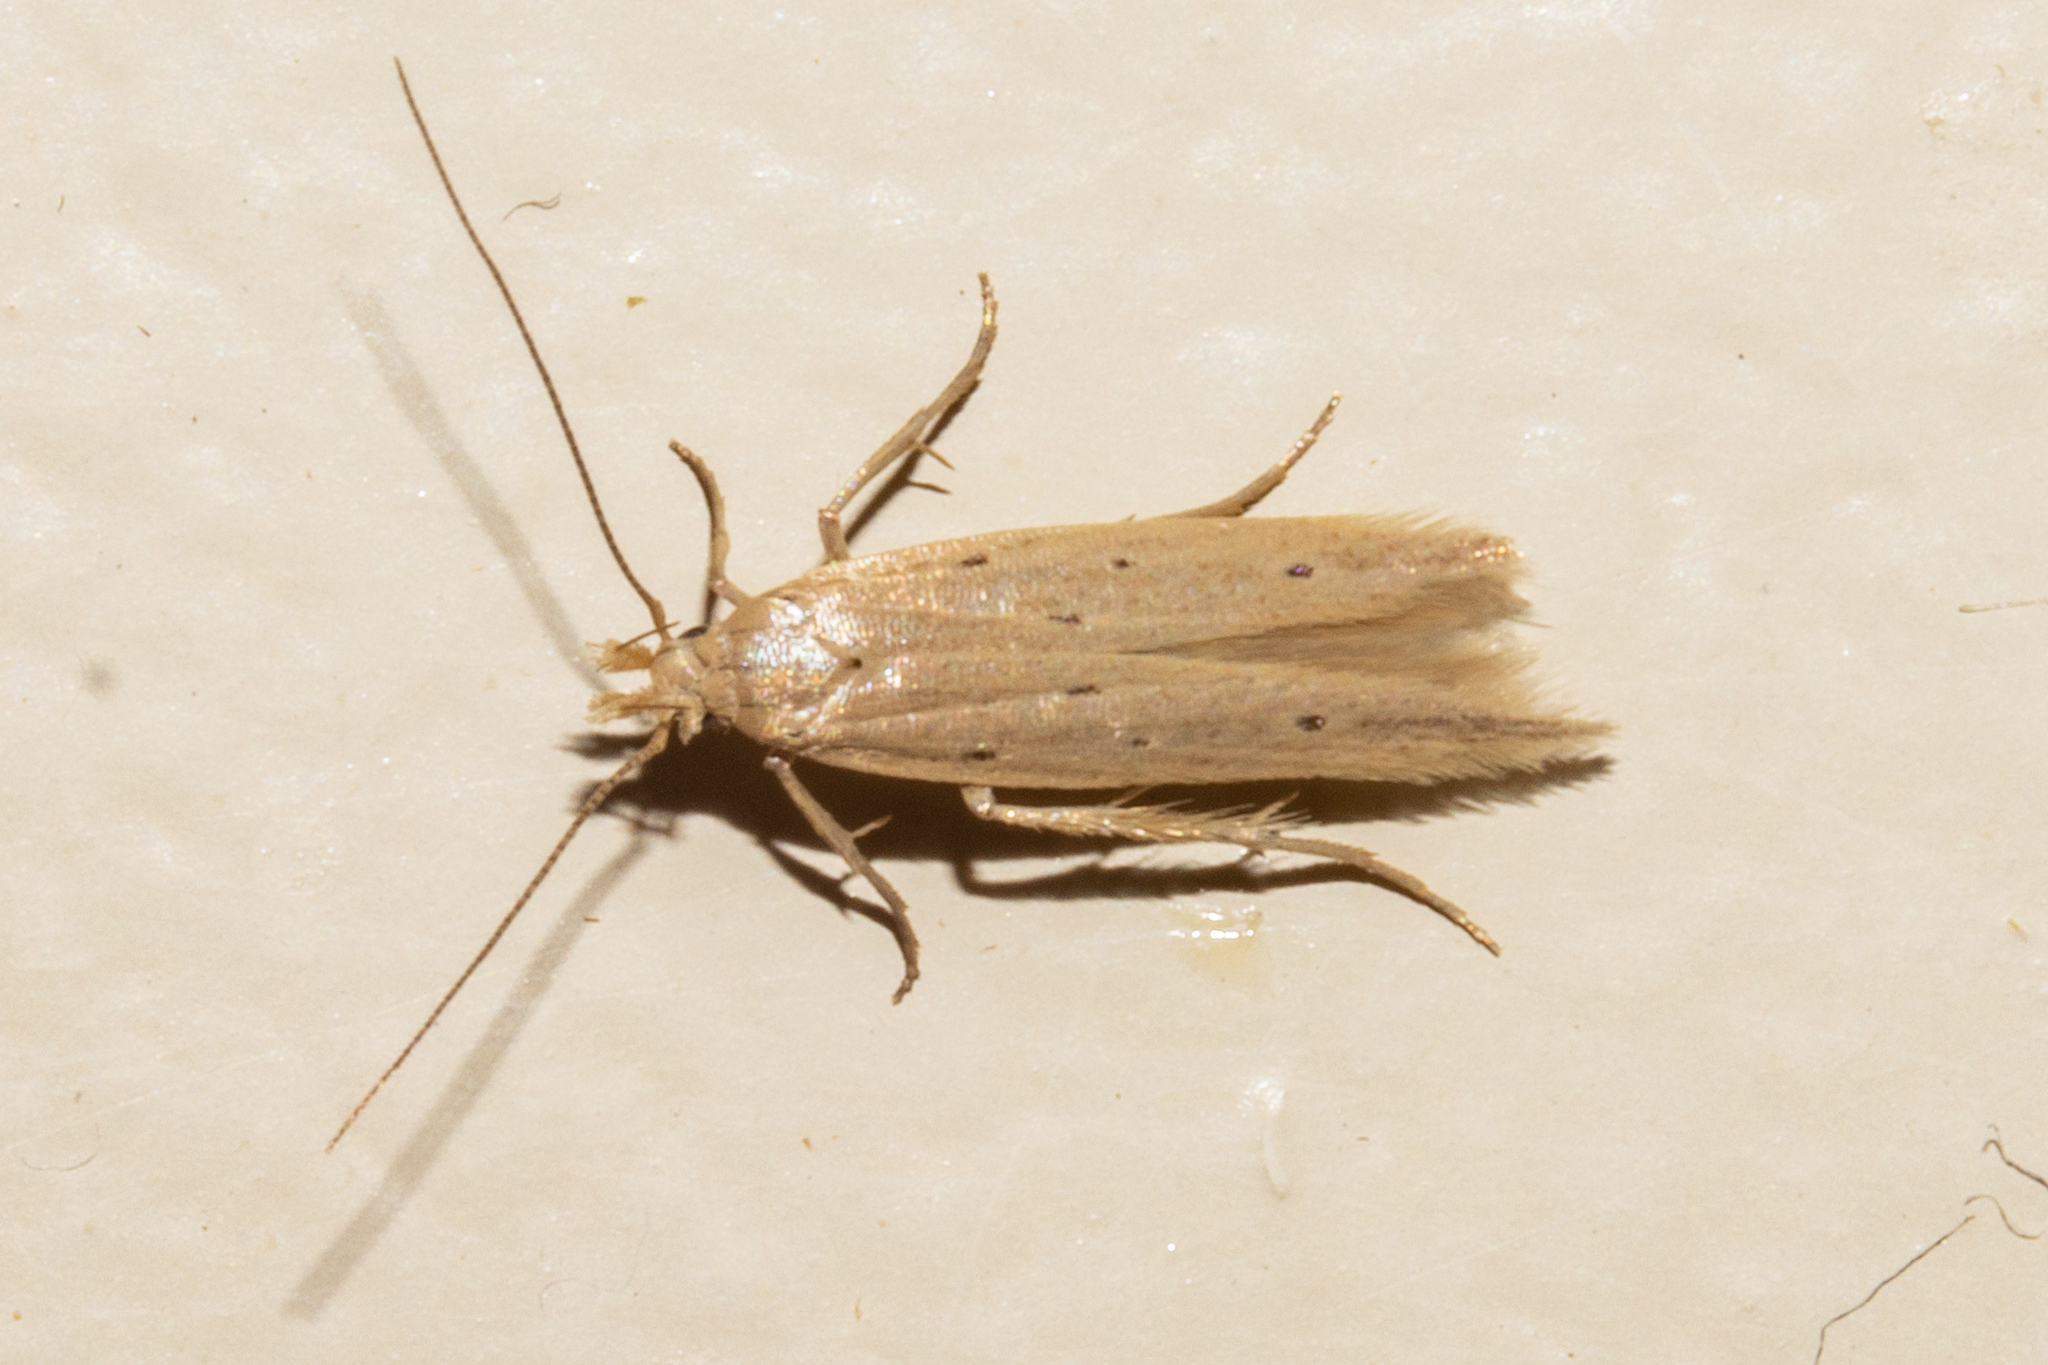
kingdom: Animalia
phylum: Arthropoda
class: Insecta
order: Lepidoptera
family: Gelechiidae
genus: Epiphthora
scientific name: Epiphthora calamogonus
